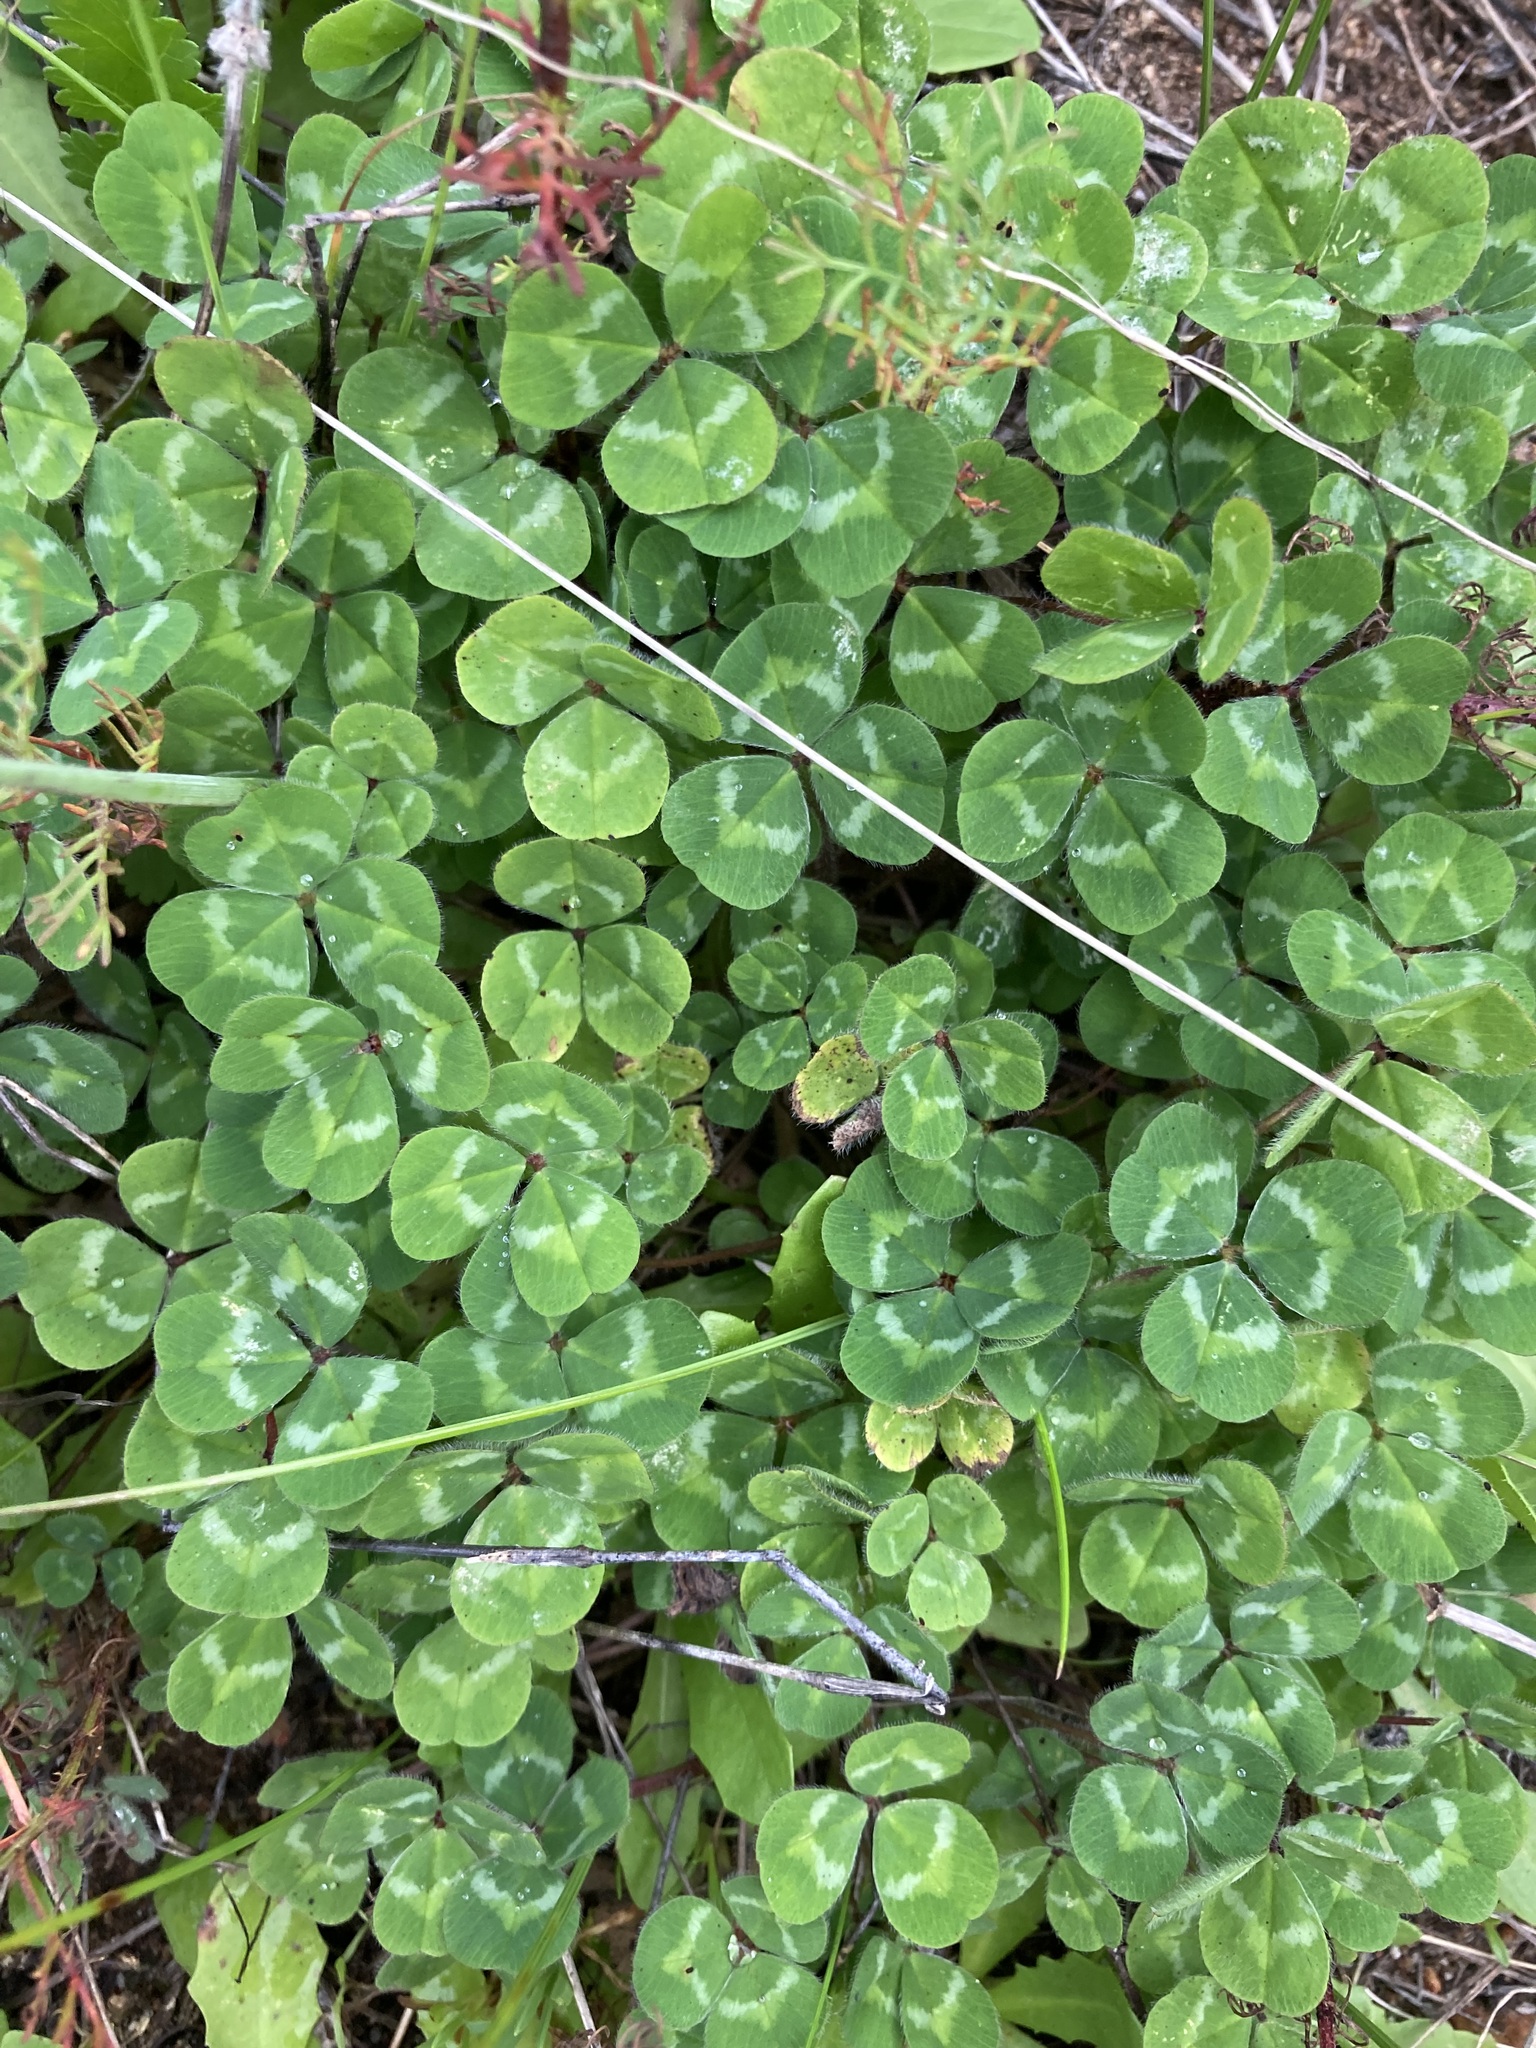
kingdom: Plantae
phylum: Tracheophyta
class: Magnoliopsida
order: Fabales
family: Fabaceae
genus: Trifolium
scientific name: Trifolium subterraneum
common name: Subterranean clover
